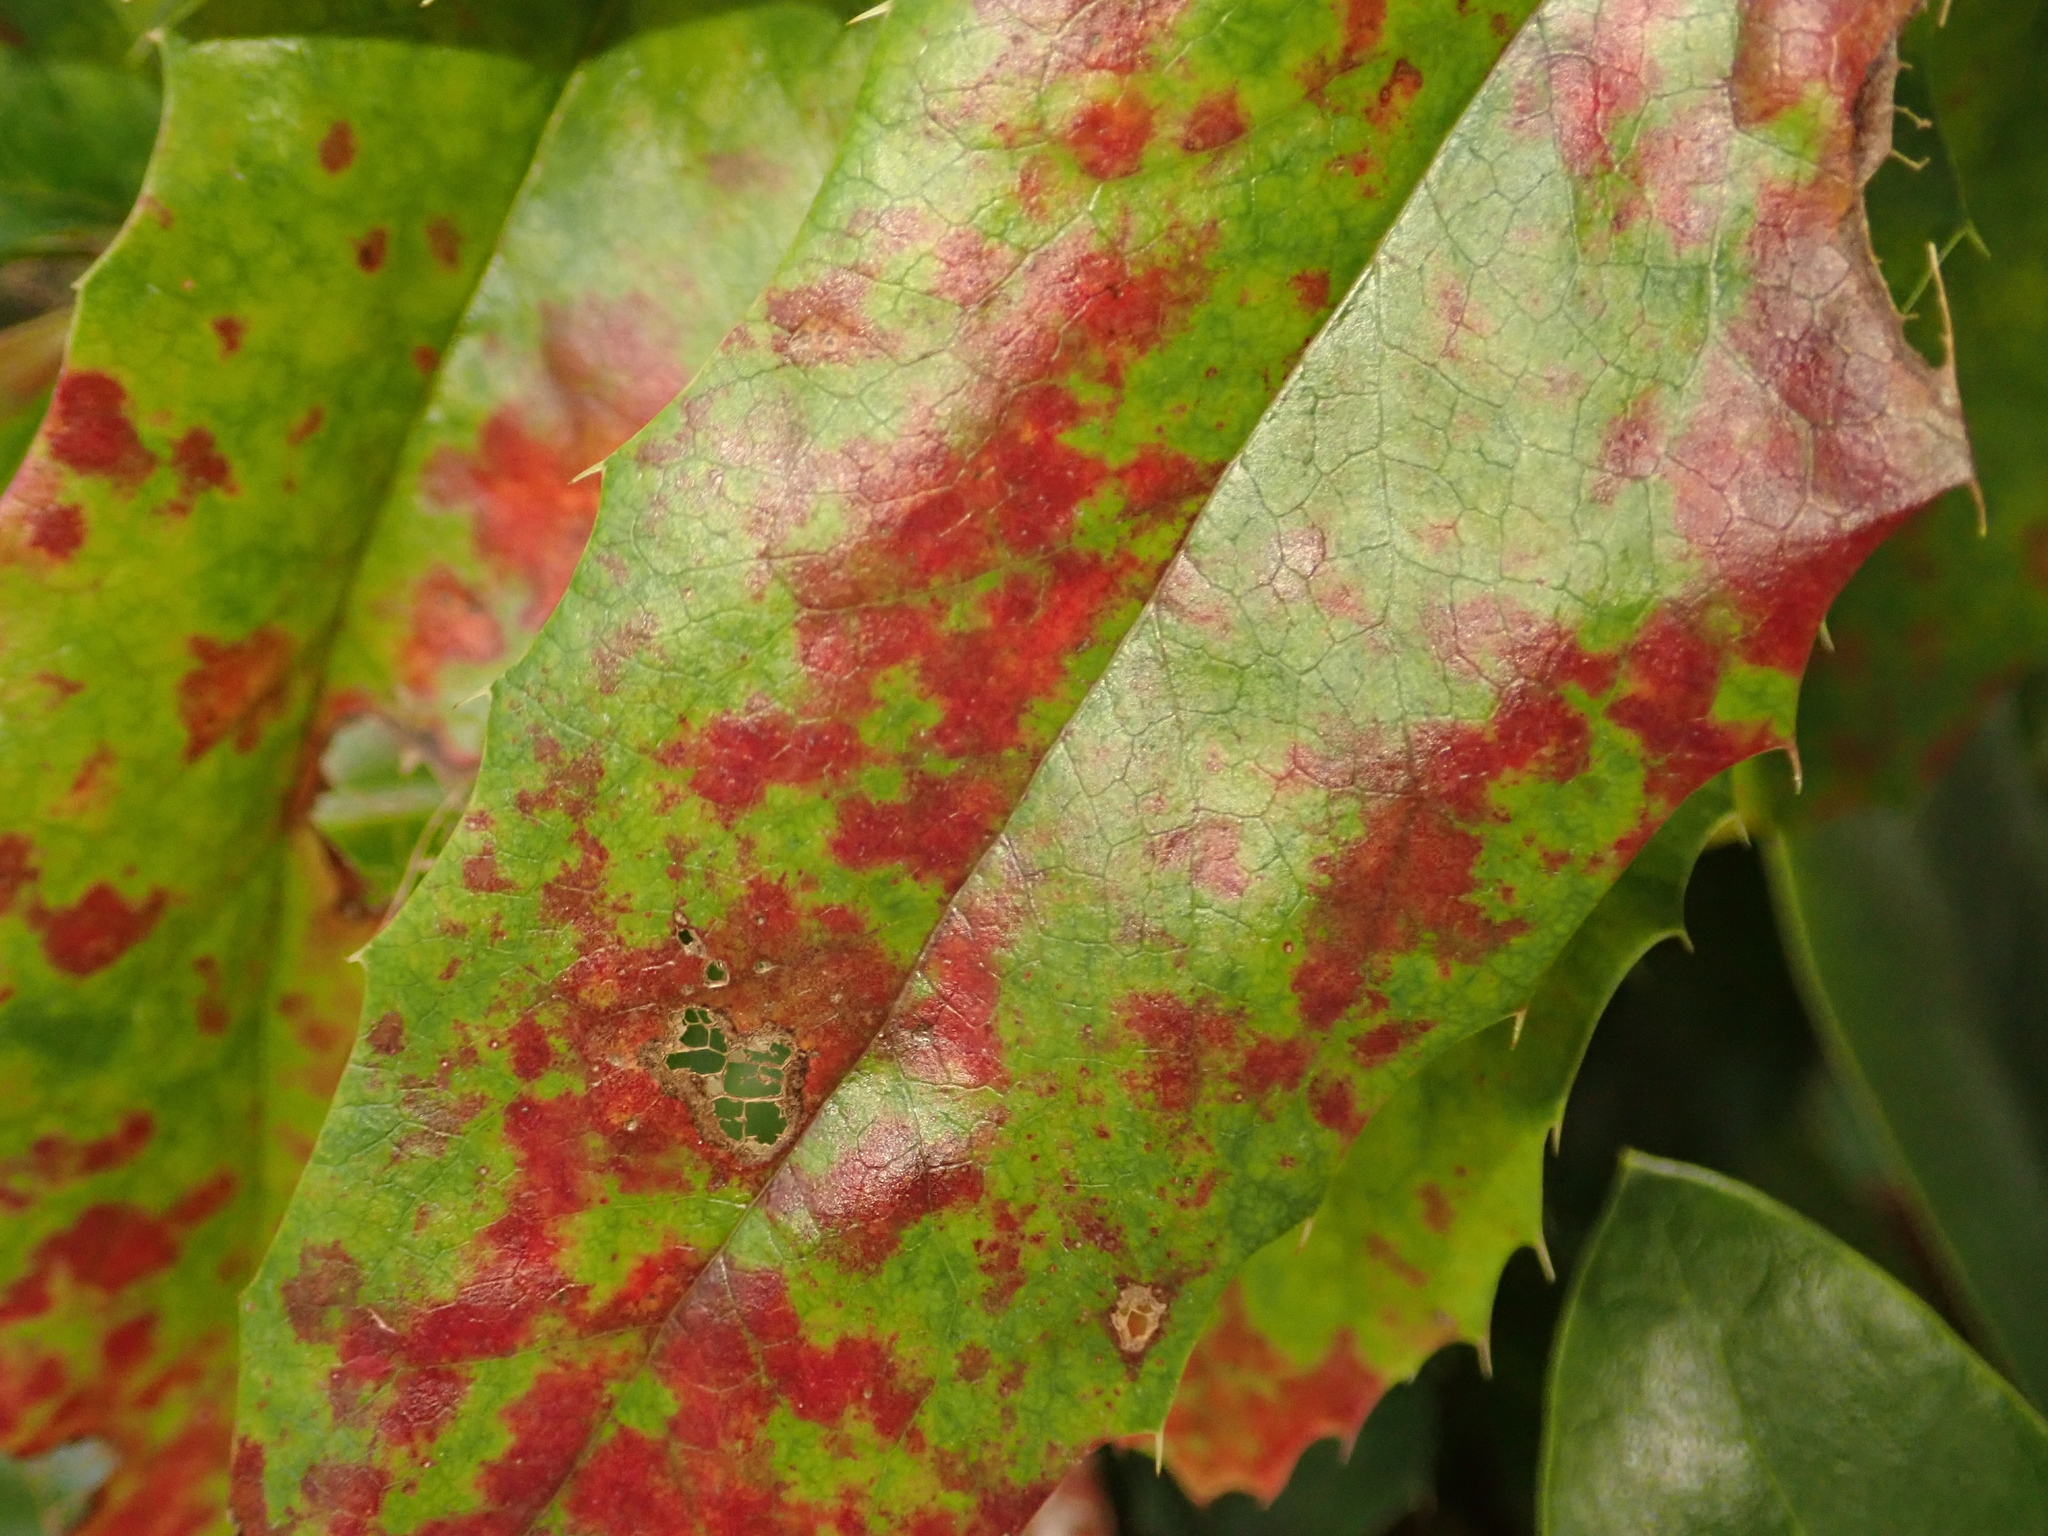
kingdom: Fungi
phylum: Basidiomycota
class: Pucciniomycetes
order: Pucciniales
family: Pucciniaceae
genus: Cumminsiella
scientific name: Cumminsiella mirabilissima
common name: Mahonia rust
